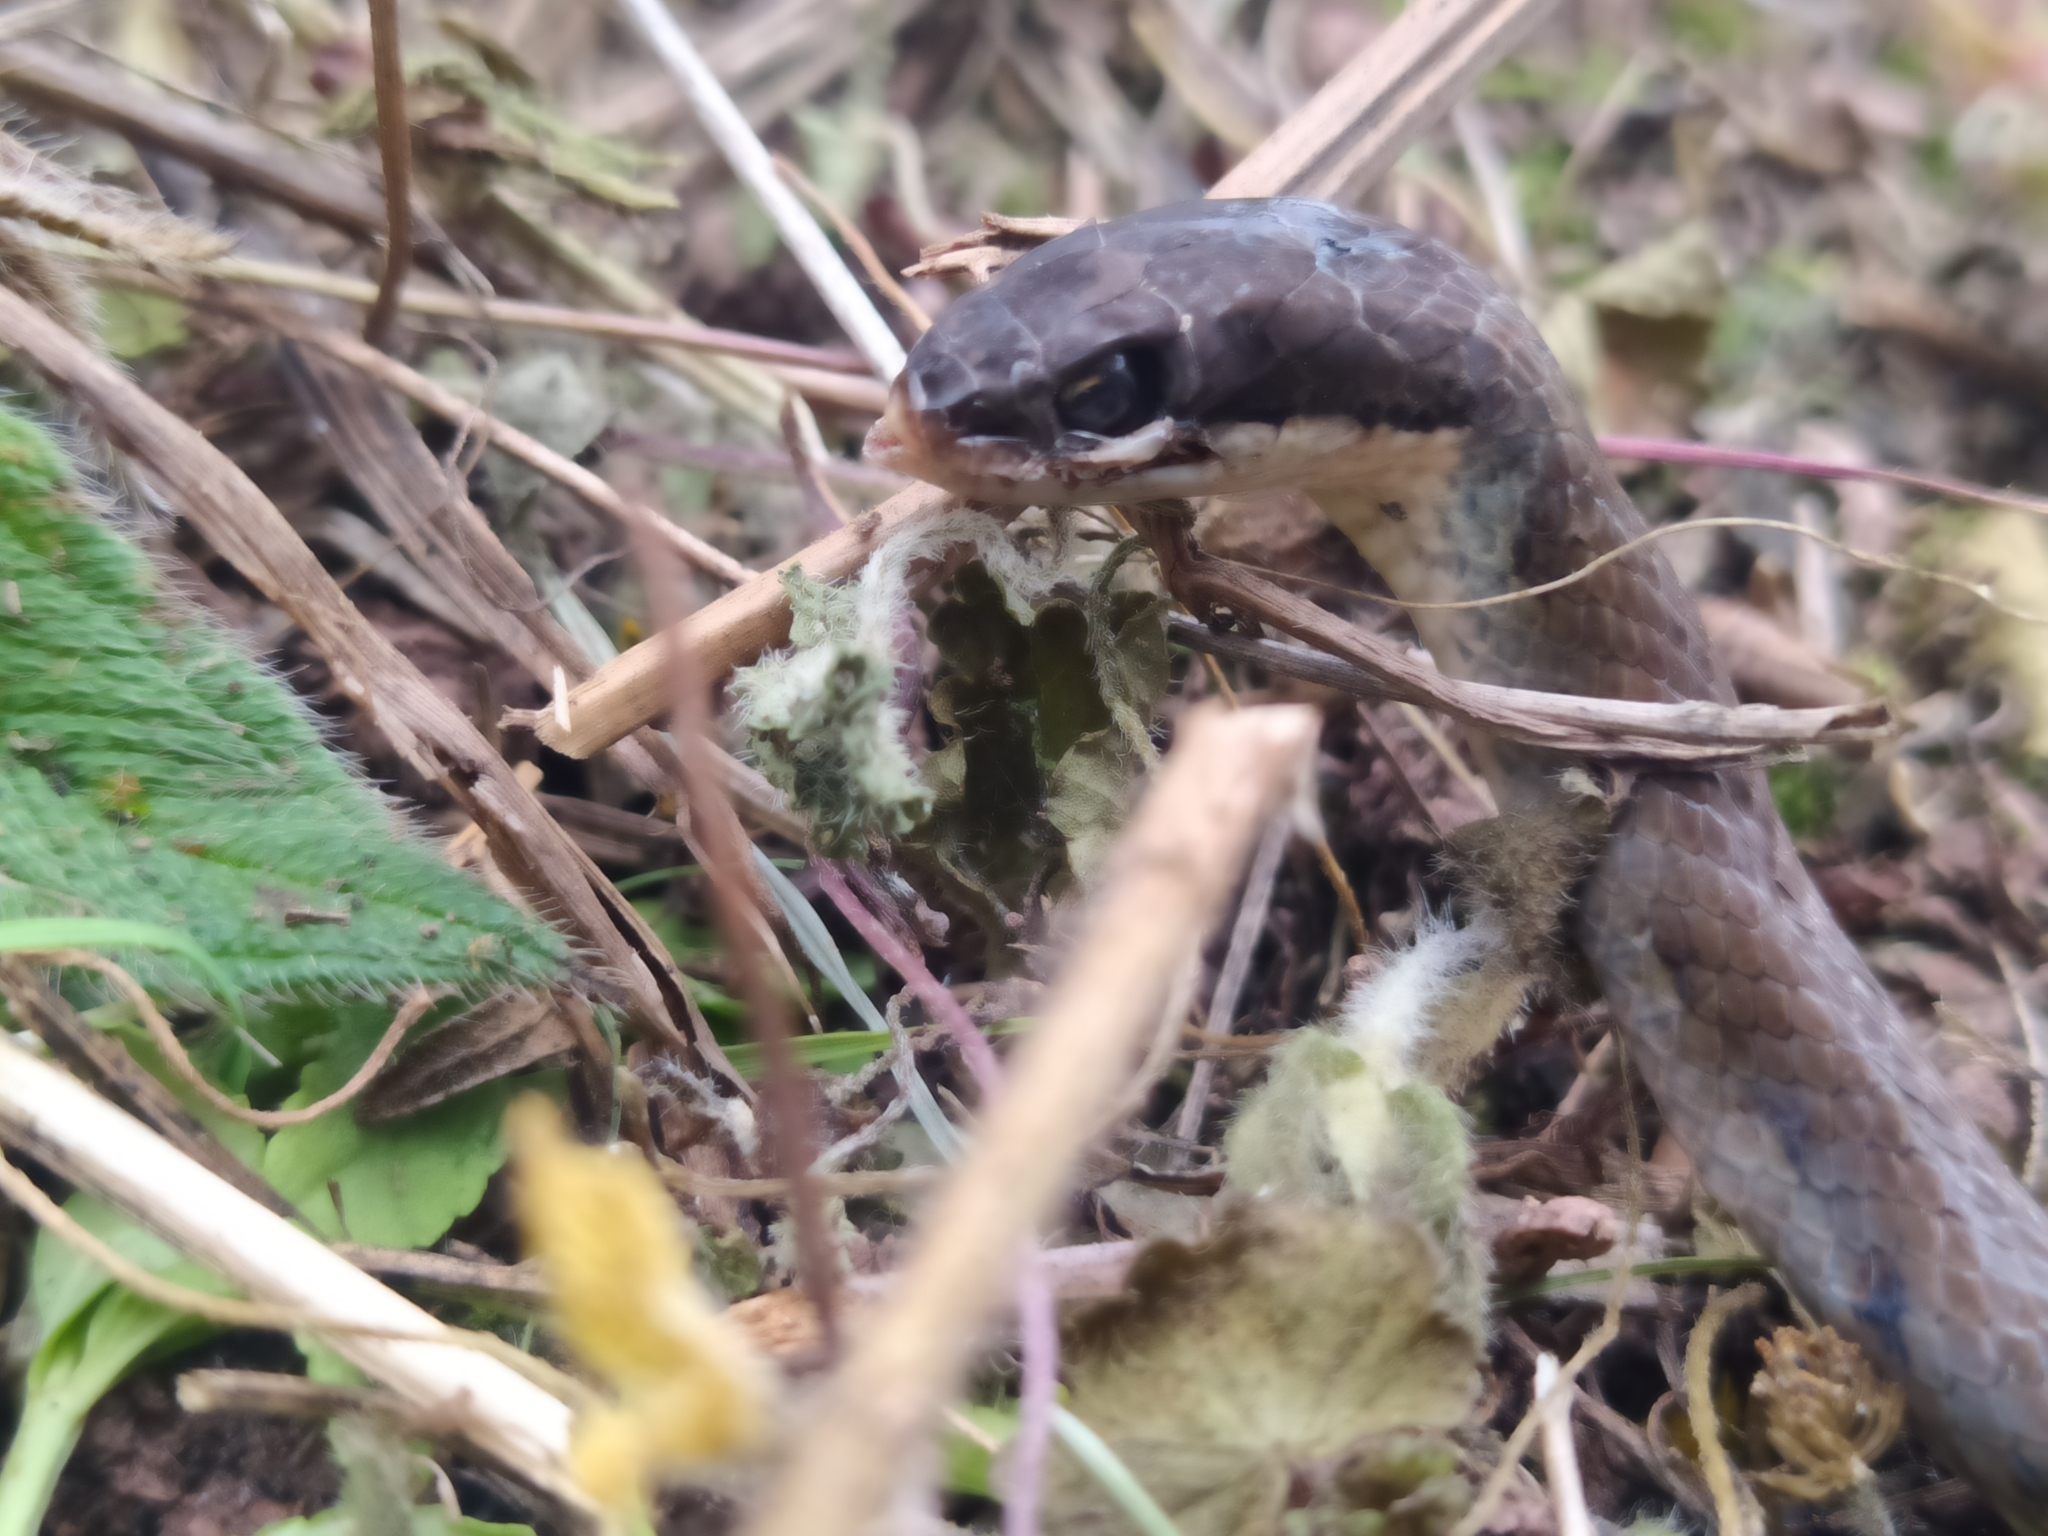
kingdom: Animalia
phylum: Chordata
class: Squamata
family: Colubridae
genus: Erythrolamprus
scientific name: Erythrolamprus epinephalus
